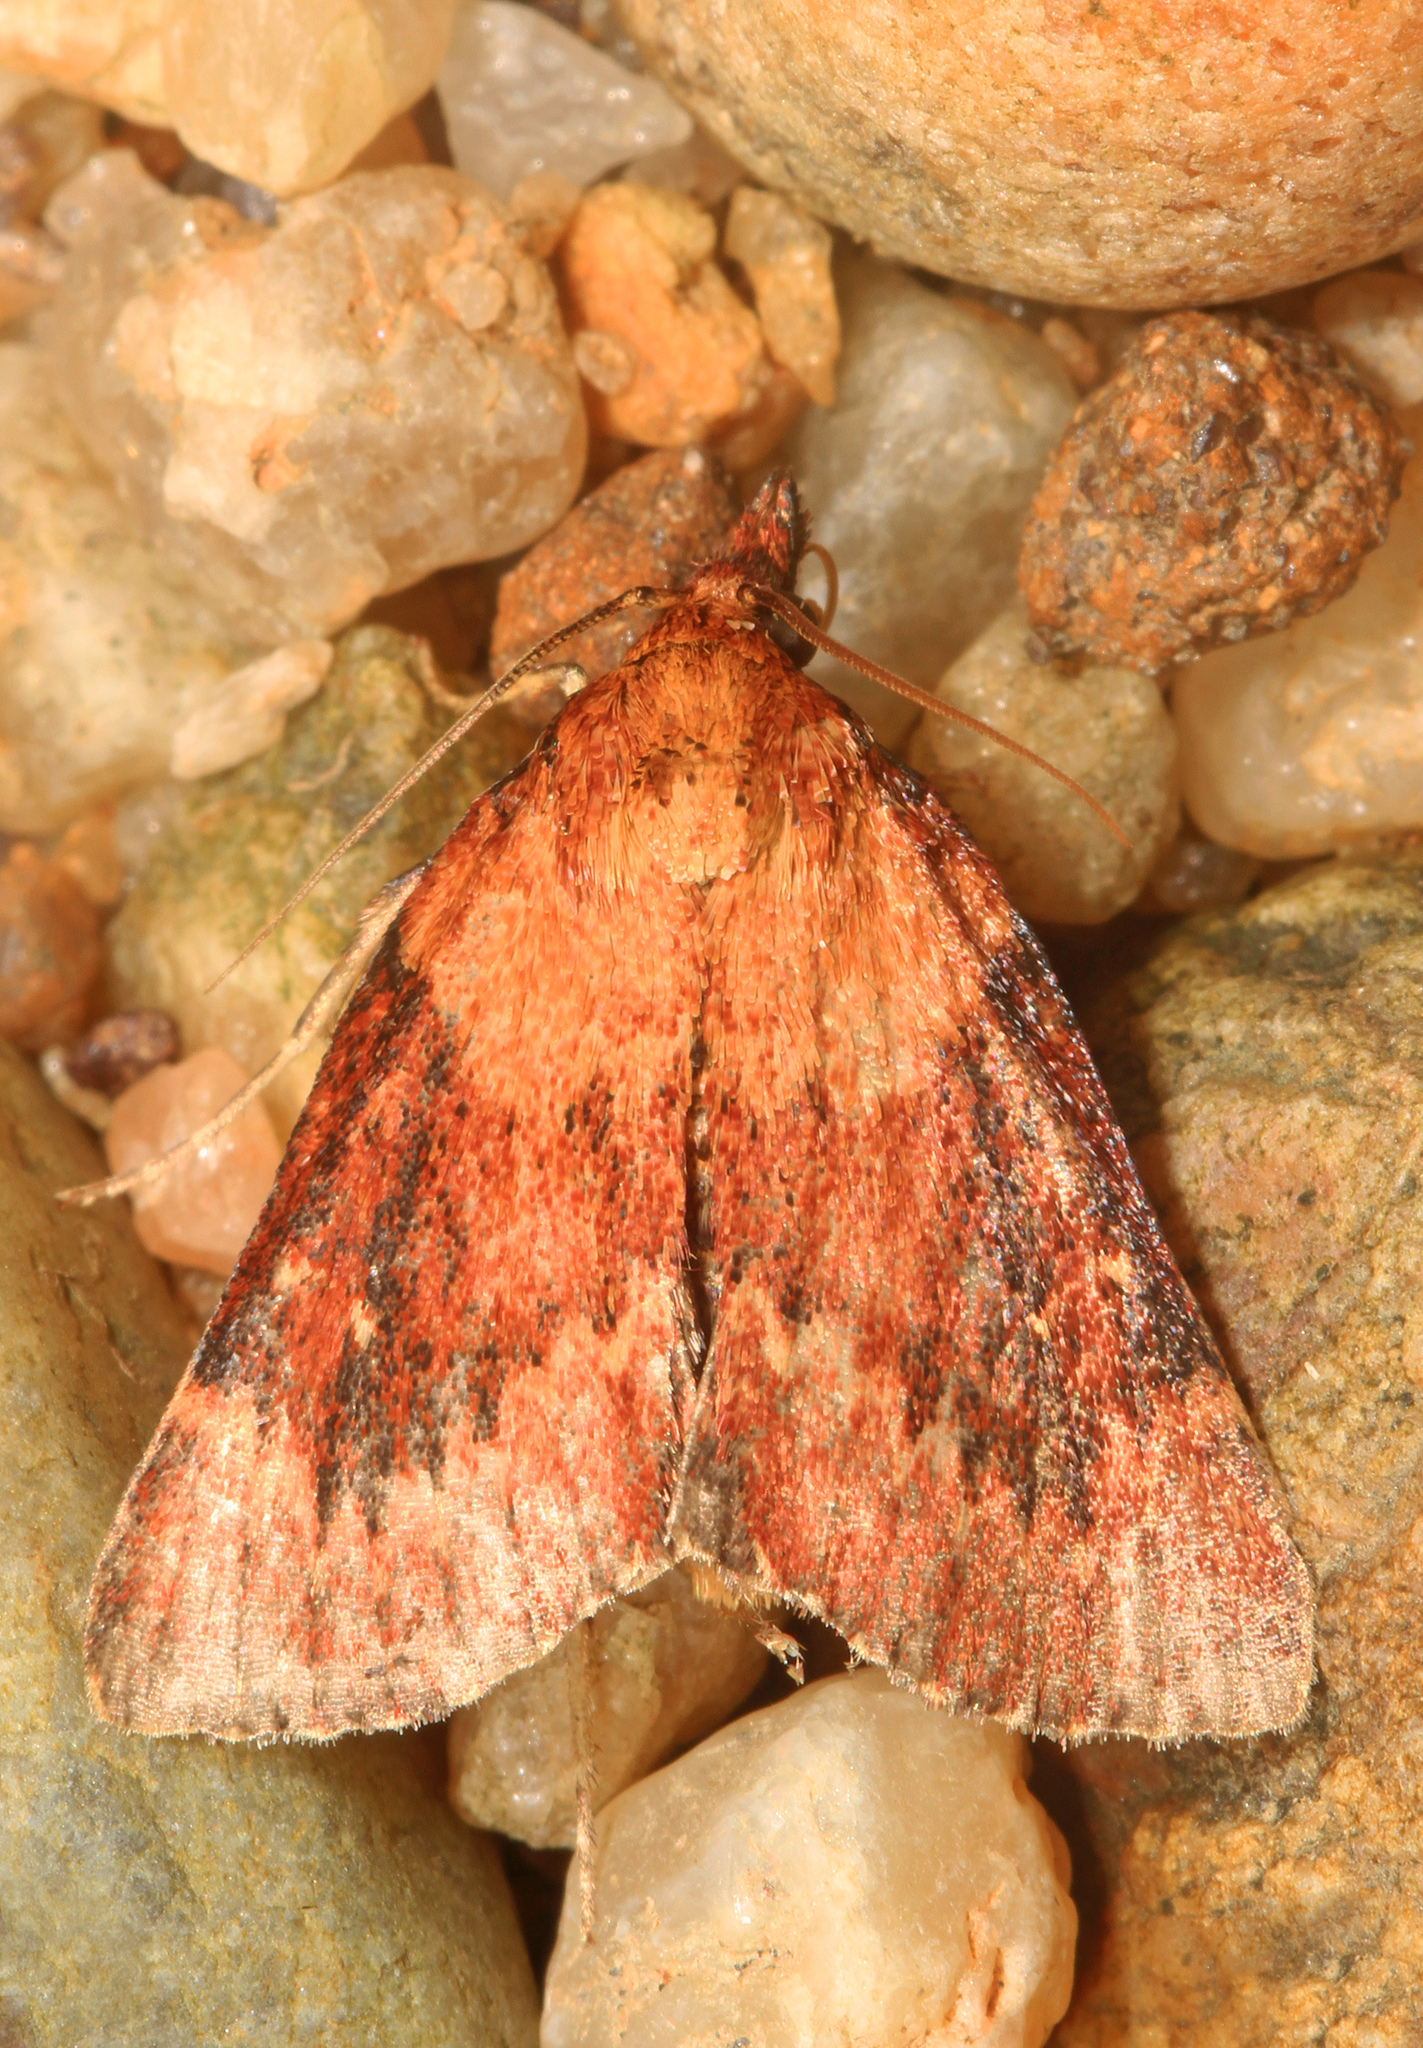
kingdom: Animalia
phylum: Arthropoda
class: Insecta
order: Lepidoptera
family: Pyralidae
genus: Omphalocera
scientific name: Omphalocera munroei
